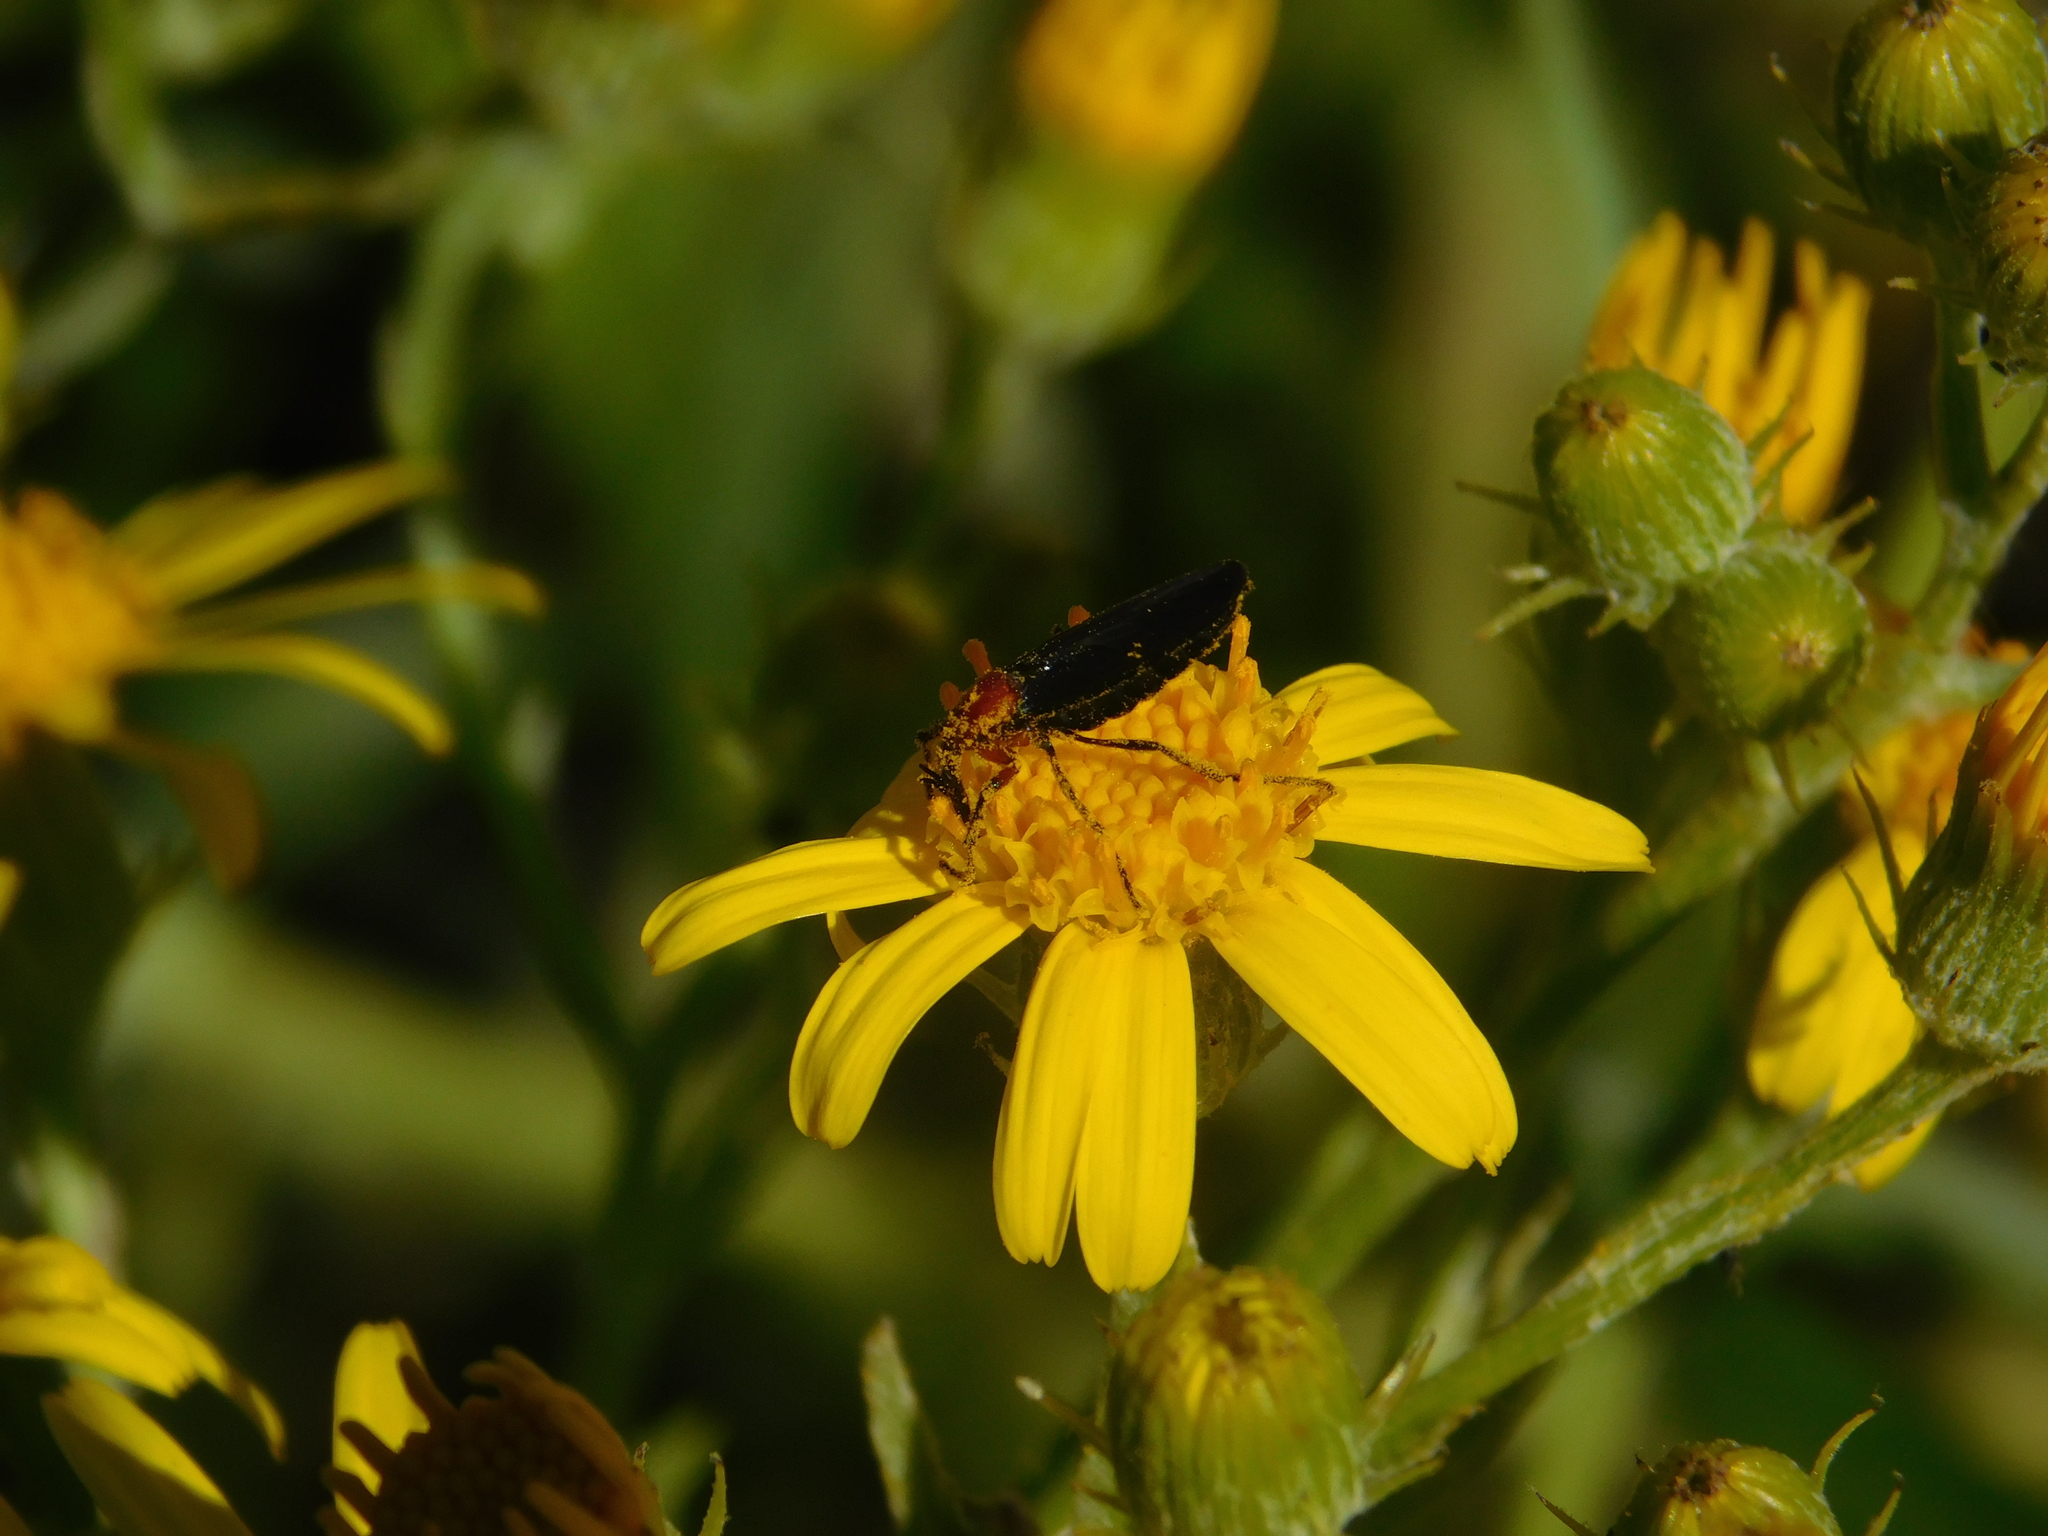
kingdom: Animalia
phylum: Arthropoda
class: Insecta
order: Diptera
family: Bibionidae
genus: Dilophus
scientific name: Dilophus pectoralis
